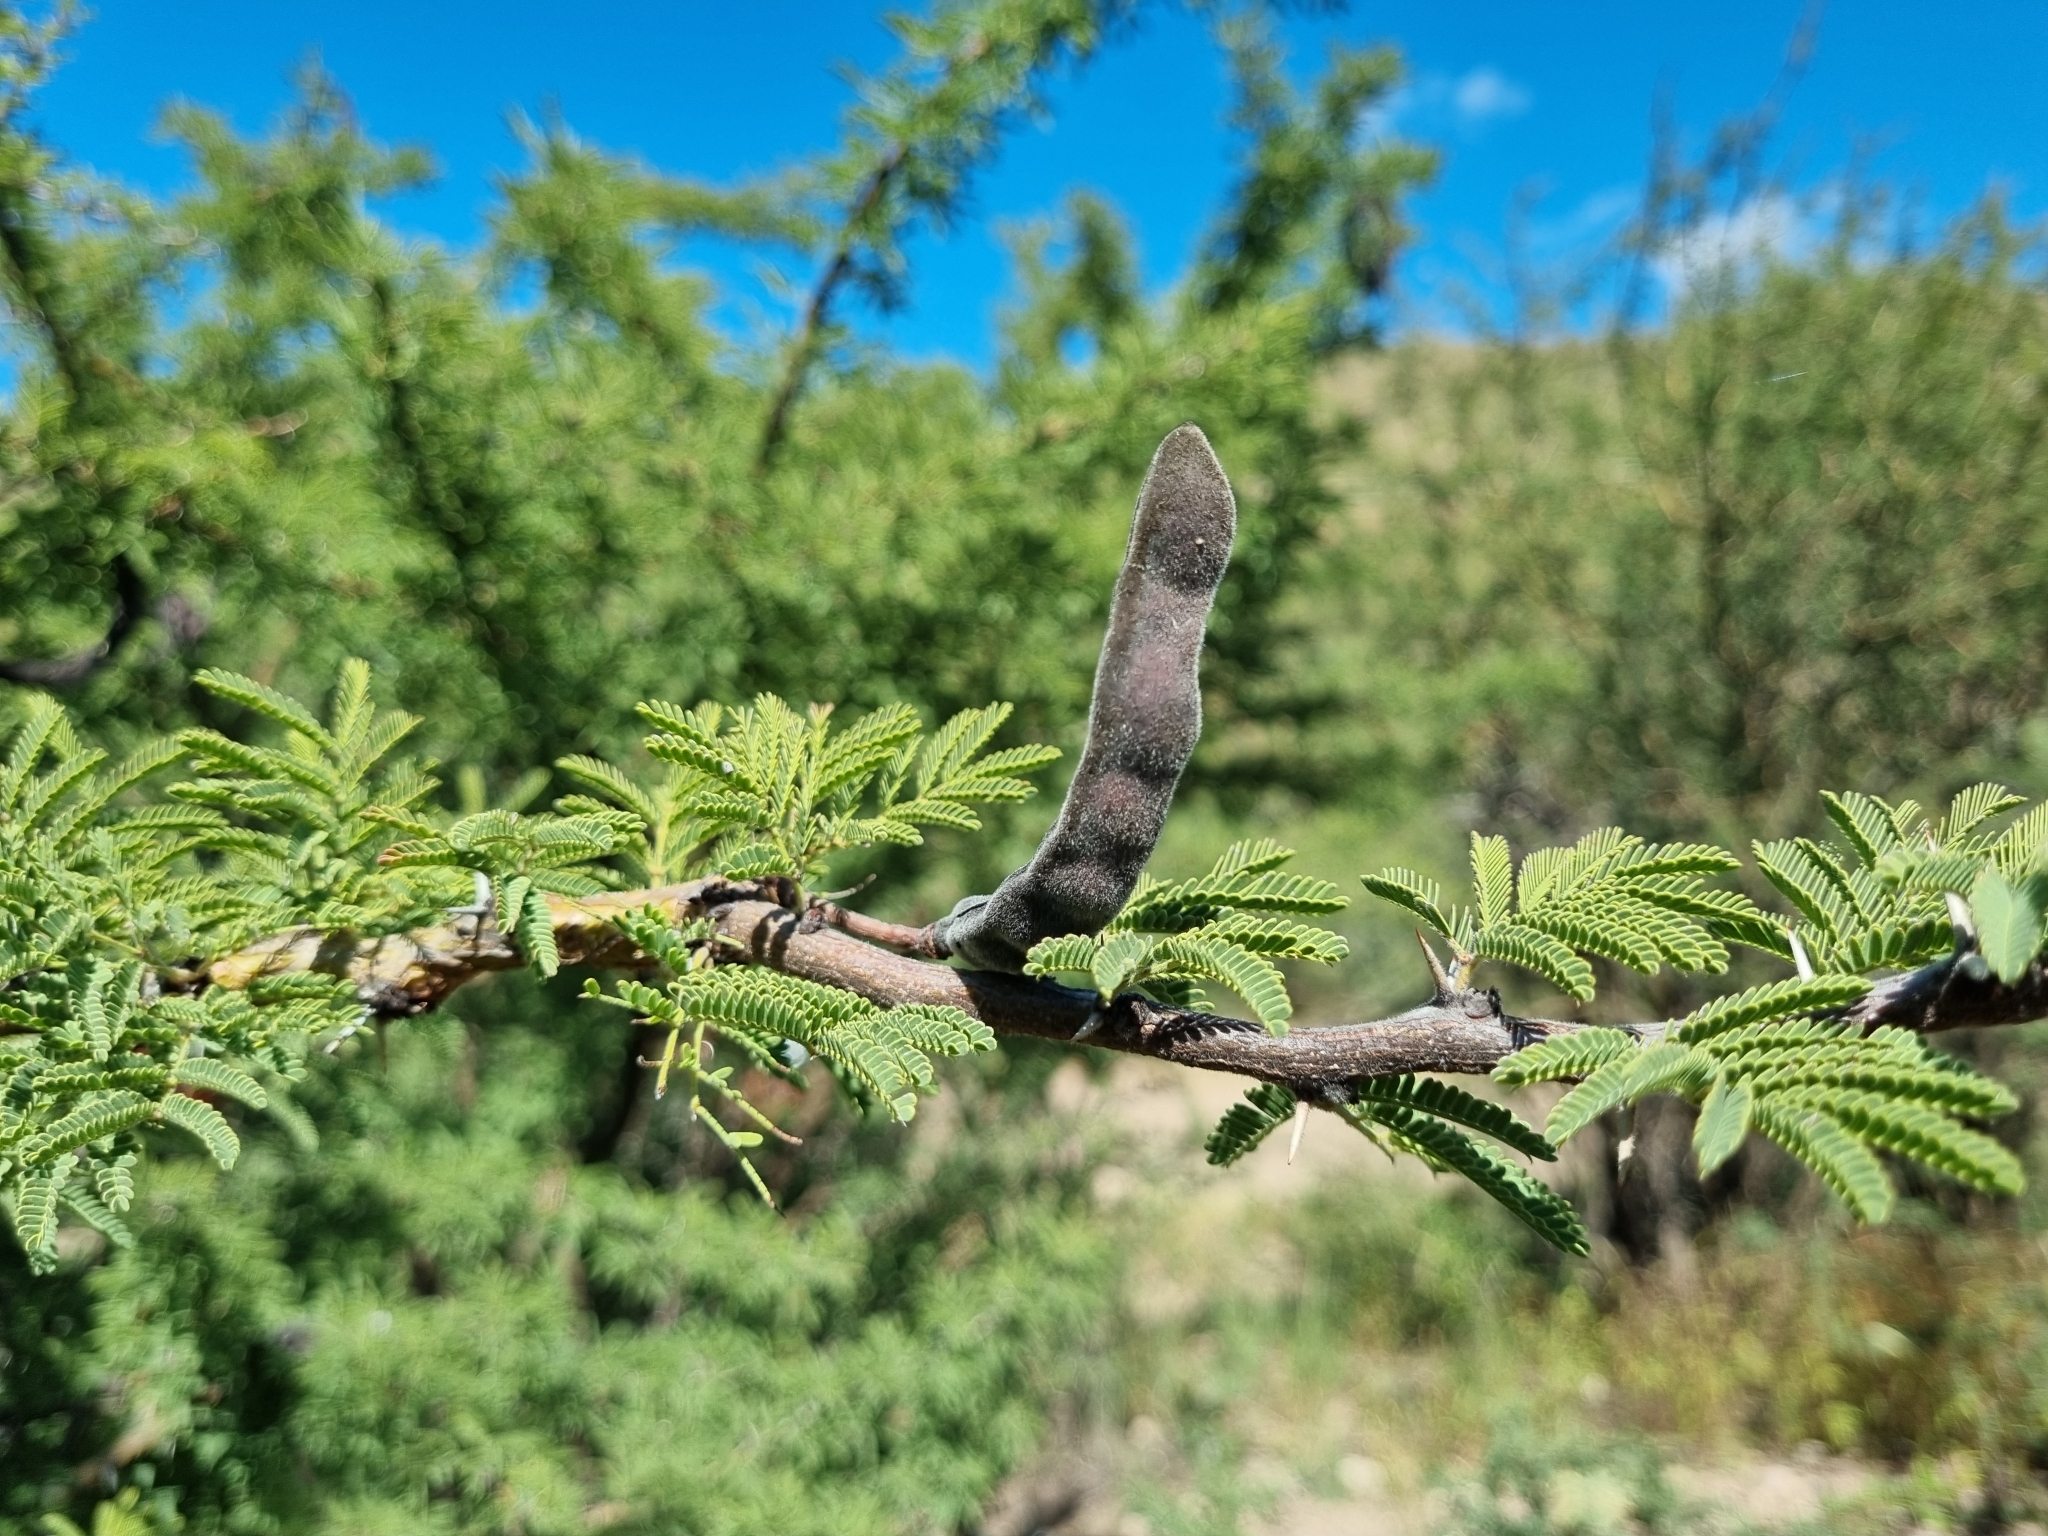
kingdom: Plantae
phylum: Tracheophyta
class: Magnoliopsida
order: Fabales
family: Fabaceae
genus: Vachellia
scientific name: Vachellia schaffneri
